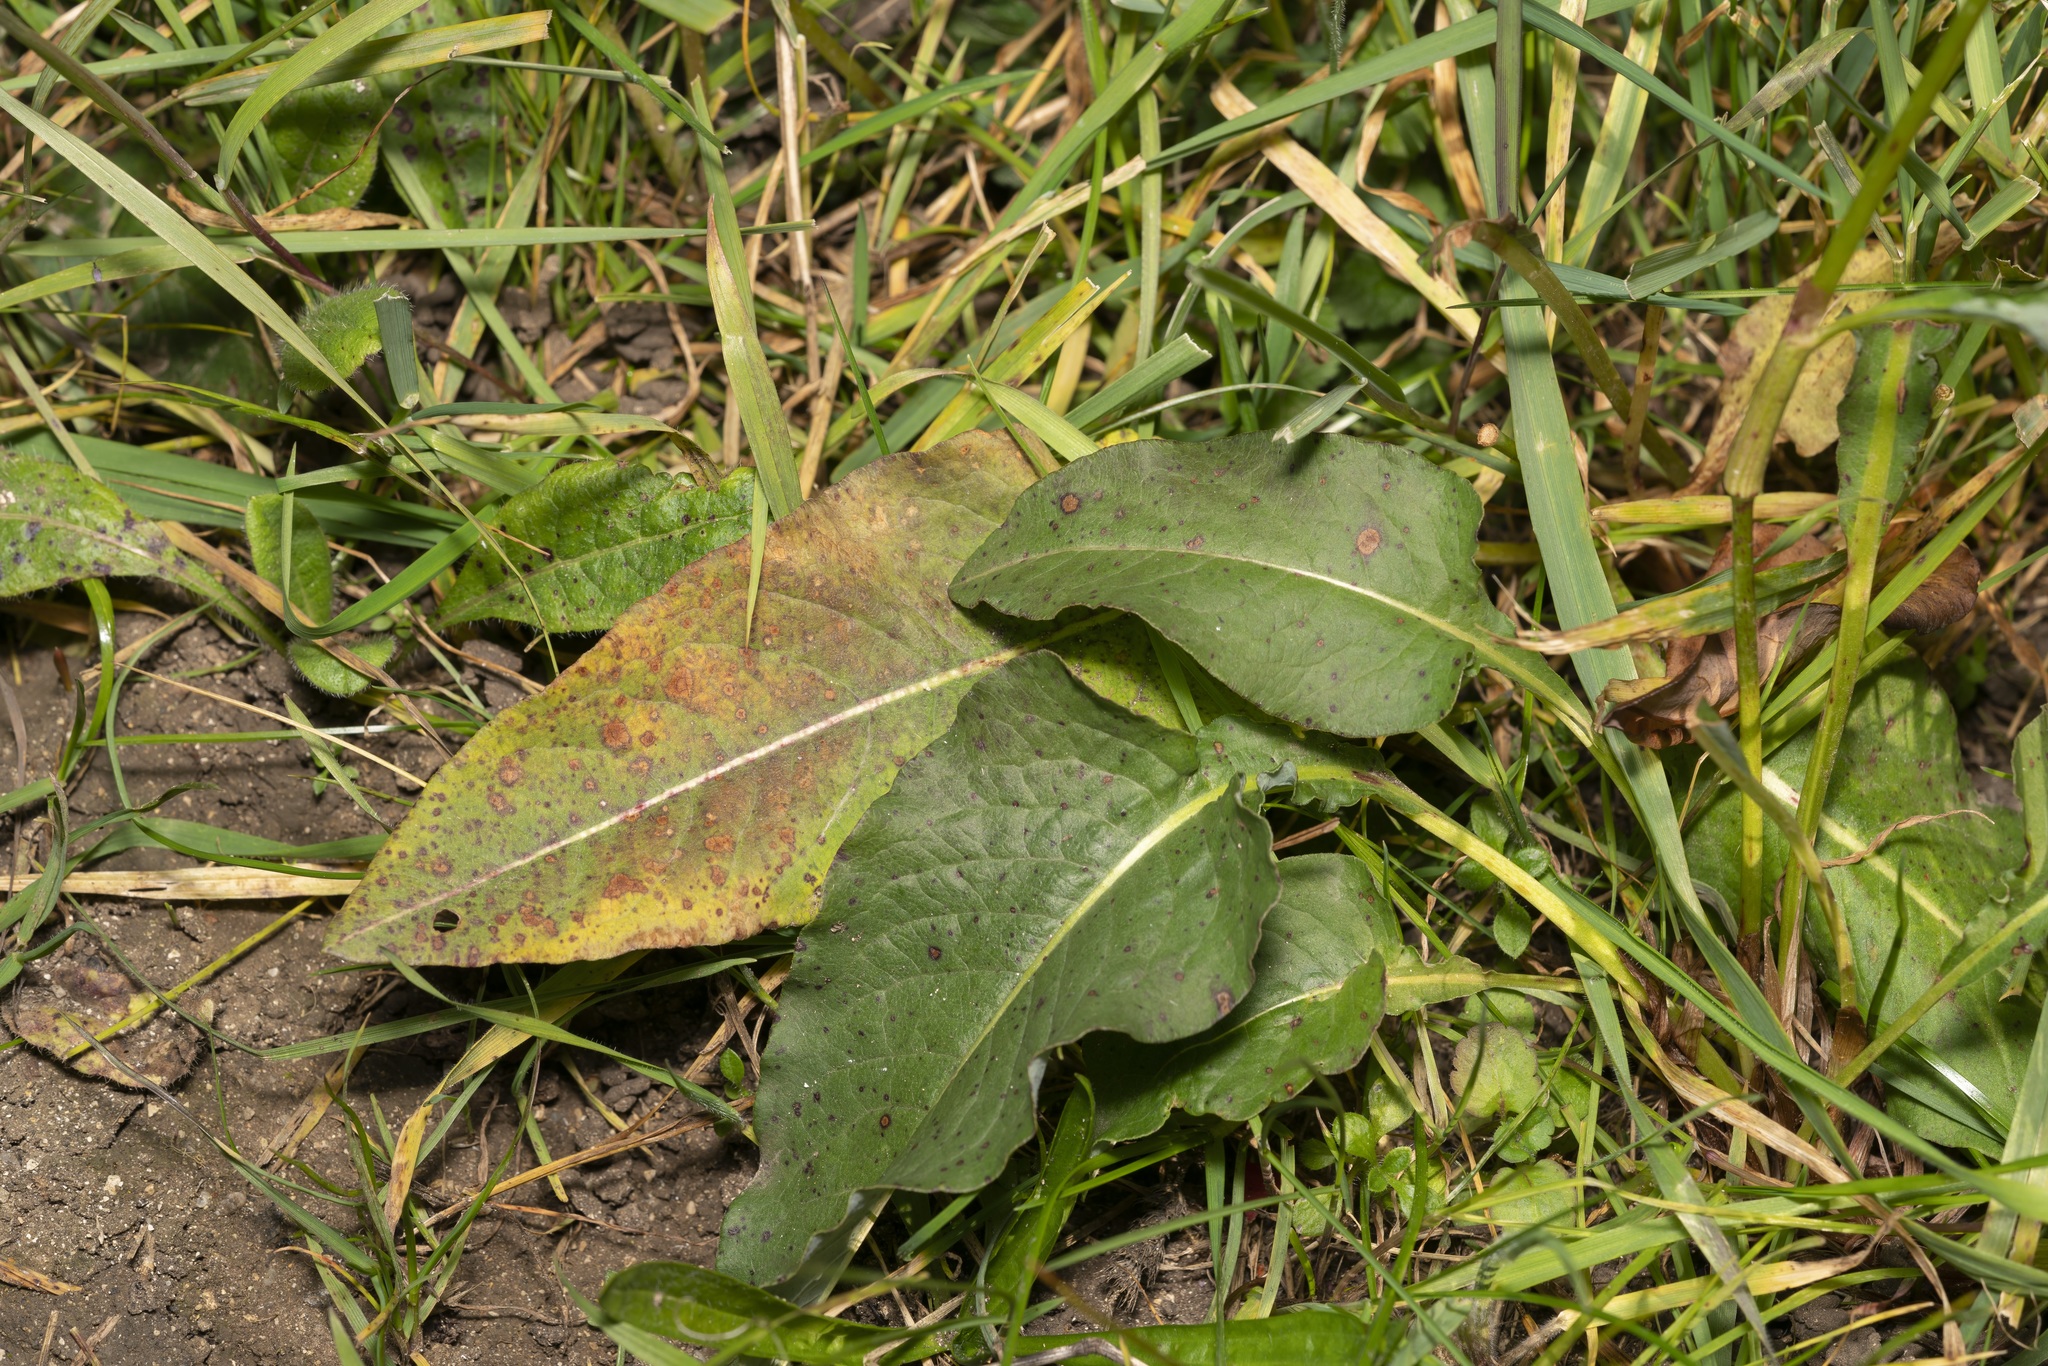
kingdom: Plantae
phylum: Tracheophyta
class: Magnoliopsida
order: Caryophyllales
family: Polygonaceae
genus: Bistorta
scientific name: Bistorta officinalis
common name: Common bistort
